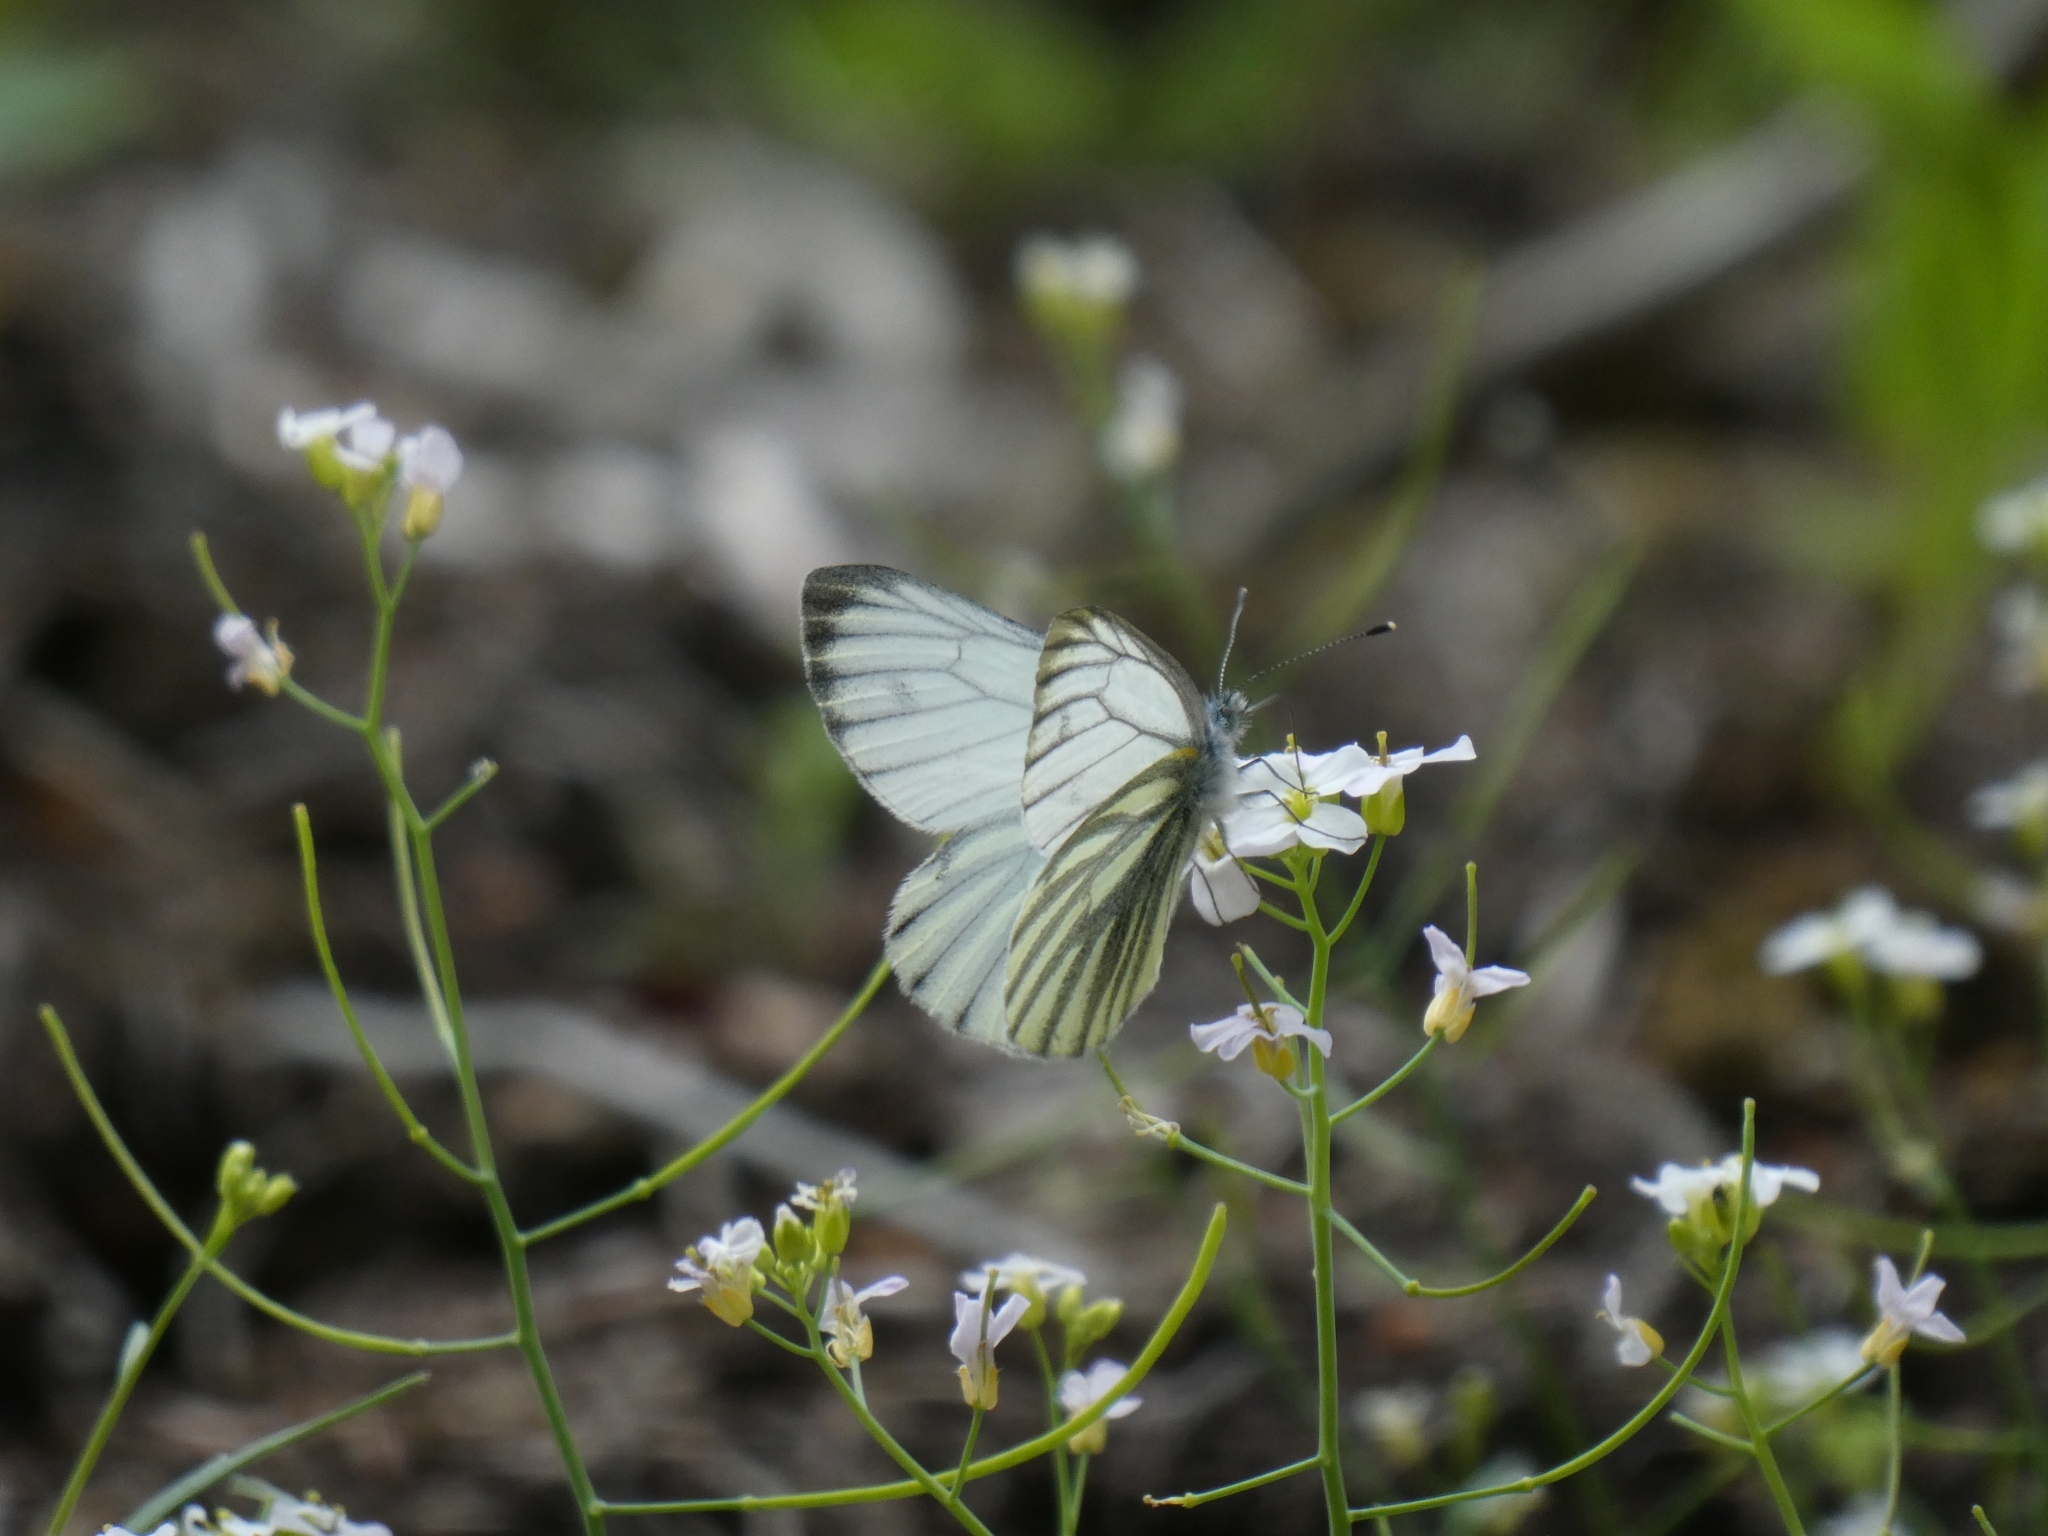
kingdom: Animalia
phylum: Arthropoda
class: Insecta
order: Lepidoptera
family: Pieridae
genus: Pieris
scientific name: Pieris napi
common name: Green-veined white
